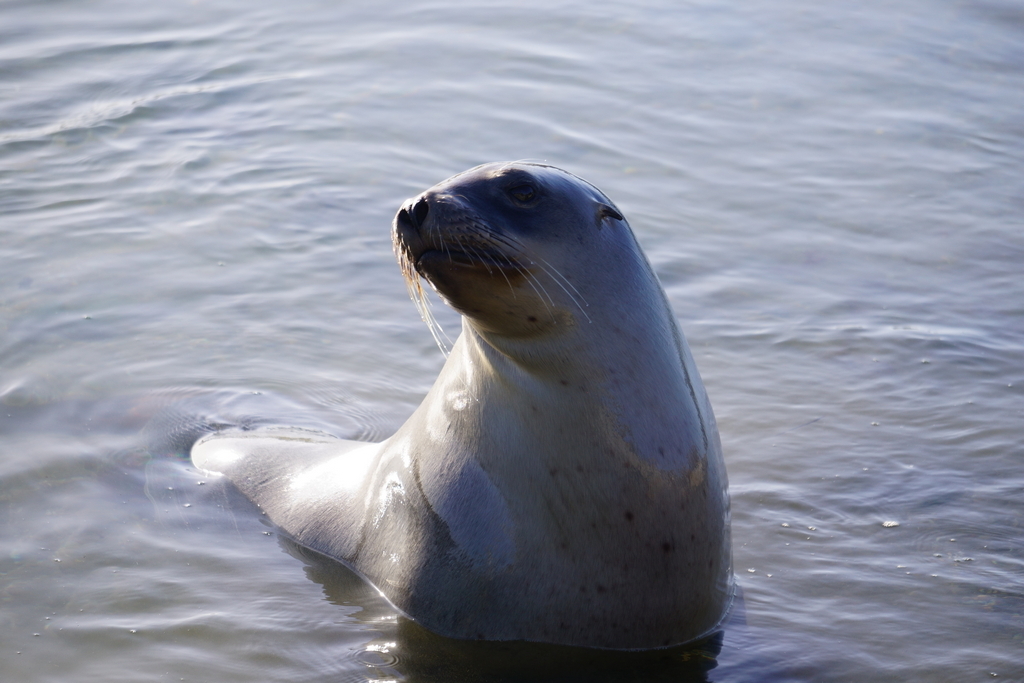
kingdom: Animalia
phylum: Chordata
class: Mammalia
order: Carnivora
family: Otariidae
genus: Phocarctos
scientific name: Phocarctos hookeri
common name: New zealand sea lion
